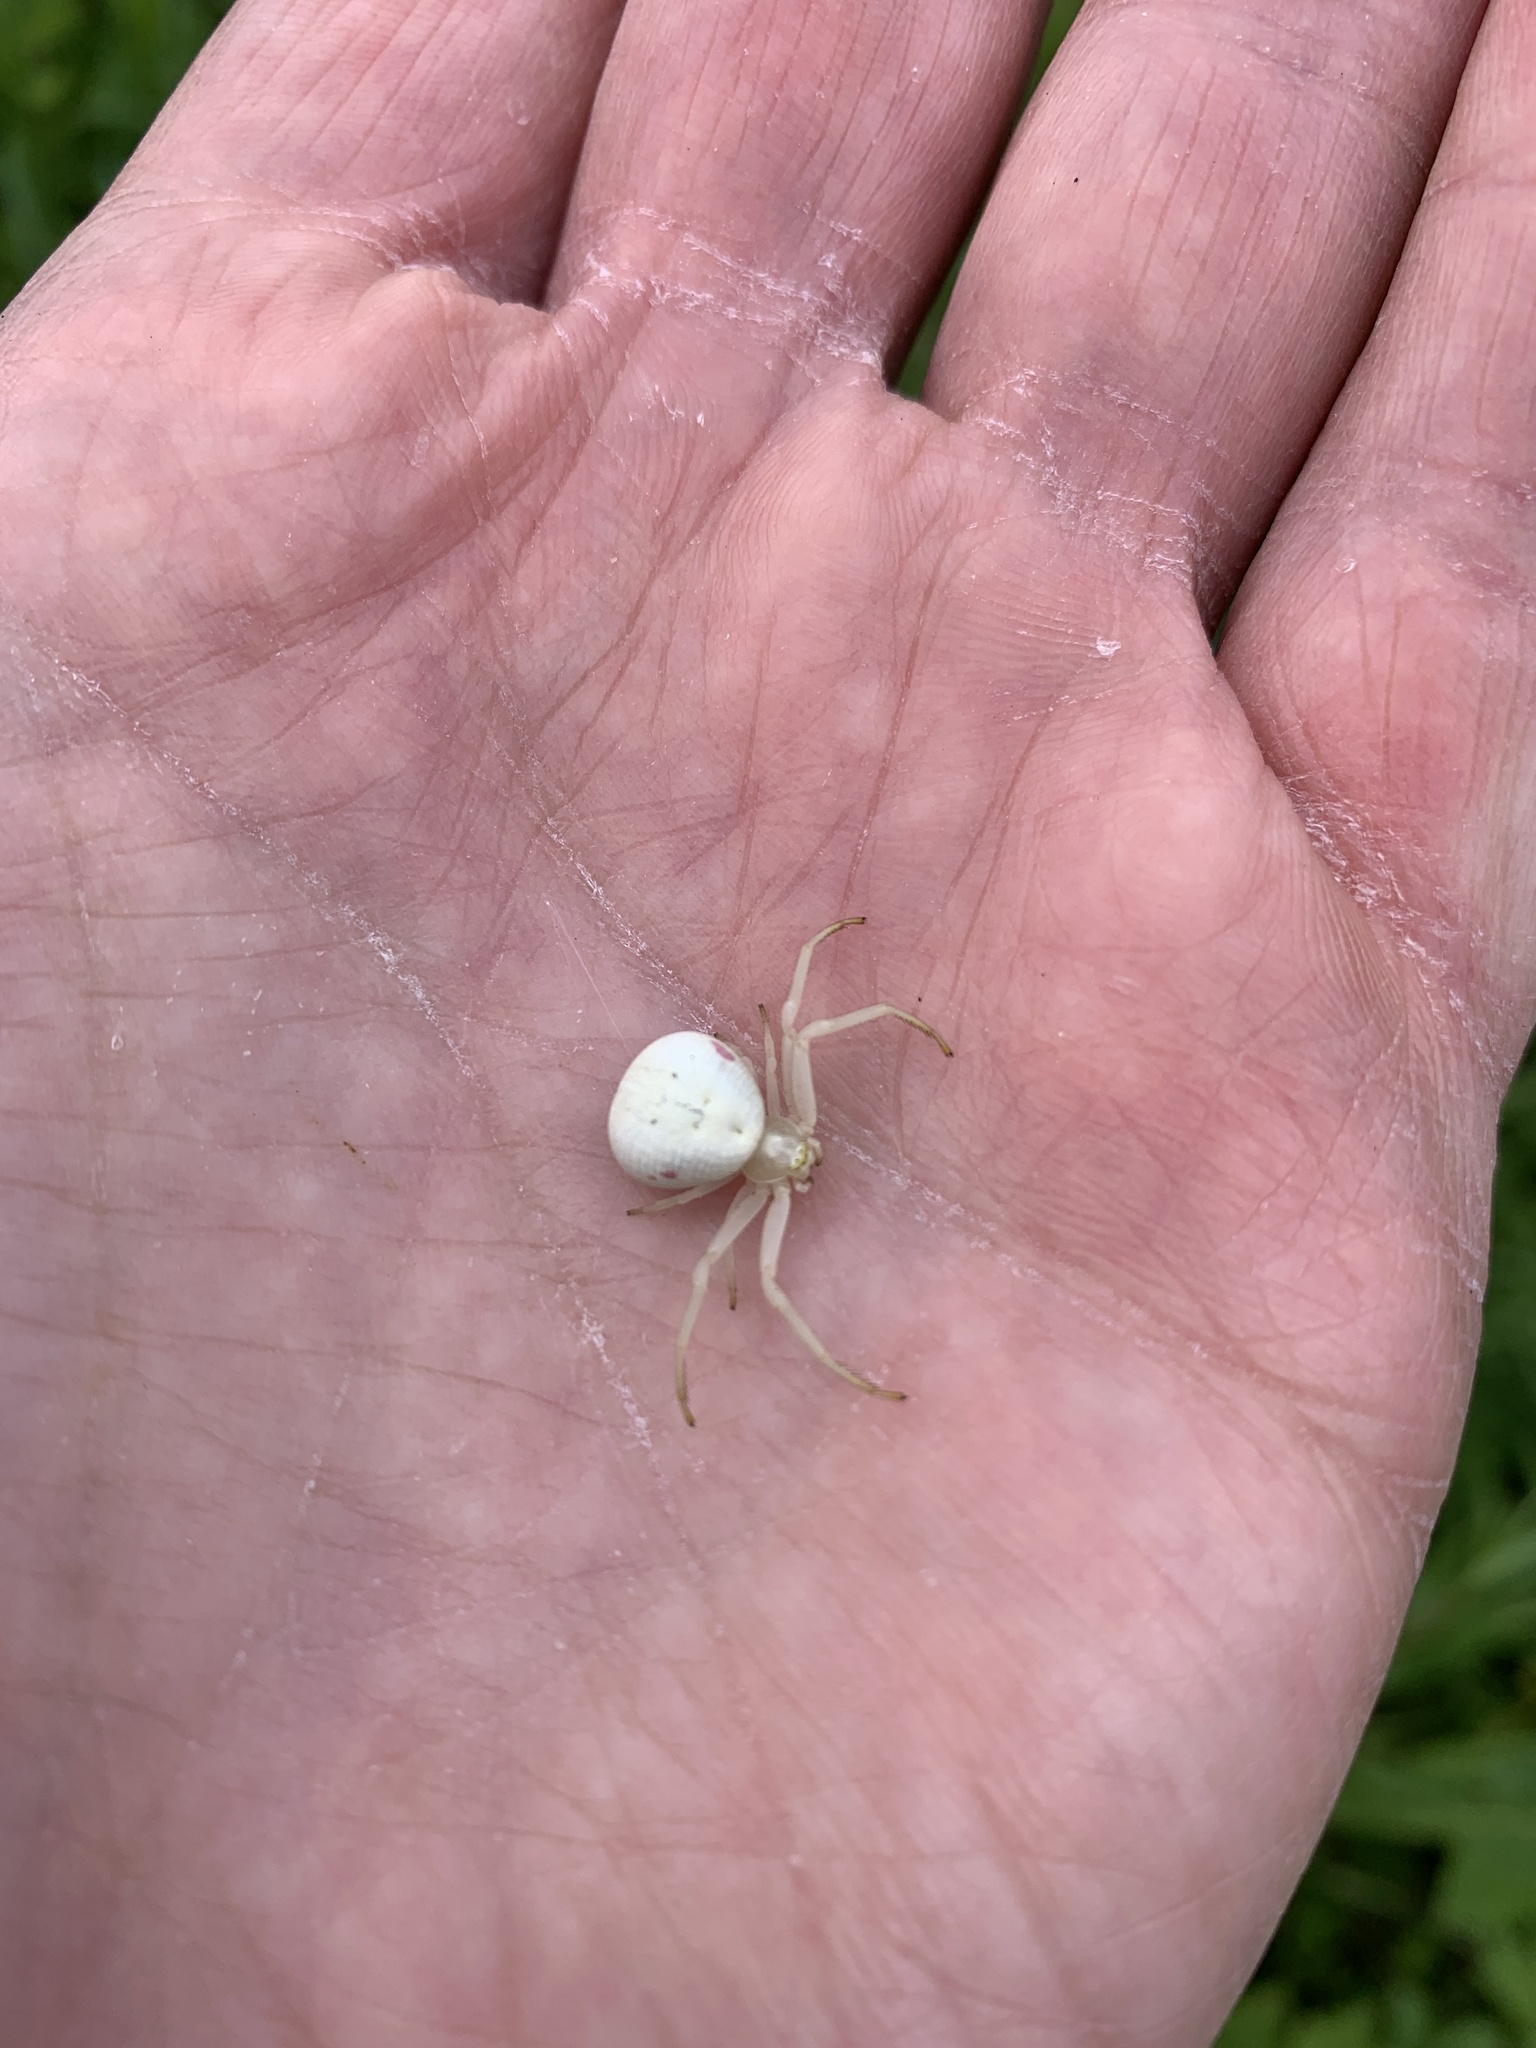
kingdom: Animalia
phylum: Arthropoda
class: Arachnida
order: Araneae
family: Thomisidae
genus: Misumena
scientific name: Misumena vatia
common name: Goldenrod crab spider
